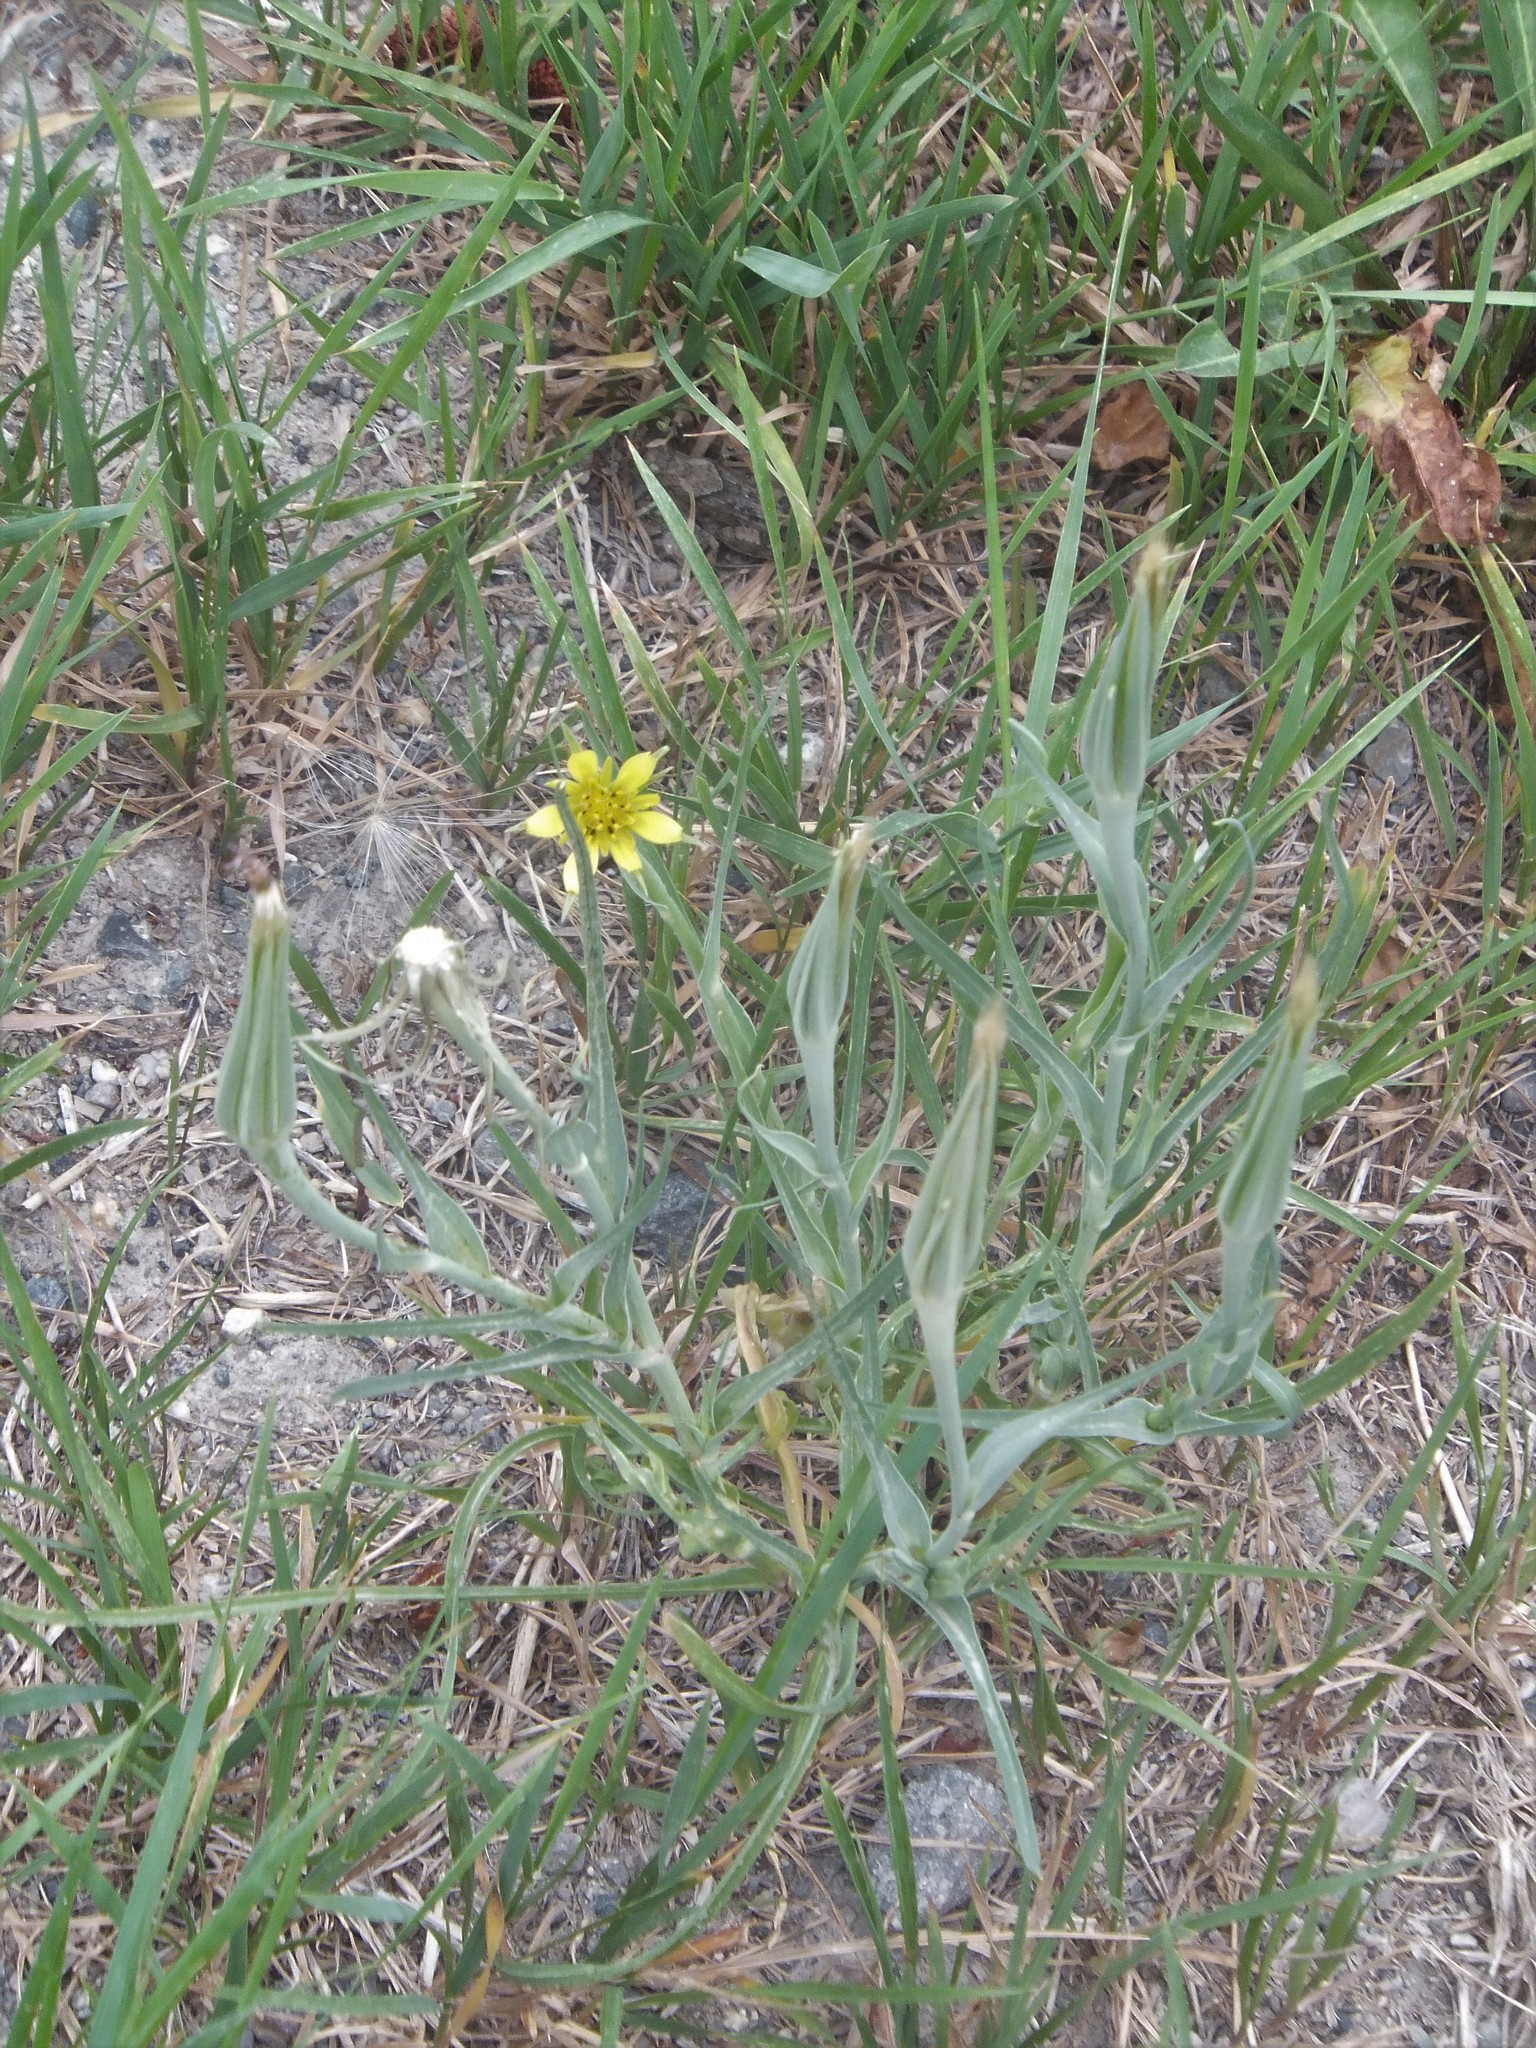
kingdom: Plantae
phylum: Tracheophyta
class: Magnoliopsida
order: Asterales
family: Asteraceae
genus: Tragopogon
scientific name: Tragopogon dubius
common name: Yellow salsify
